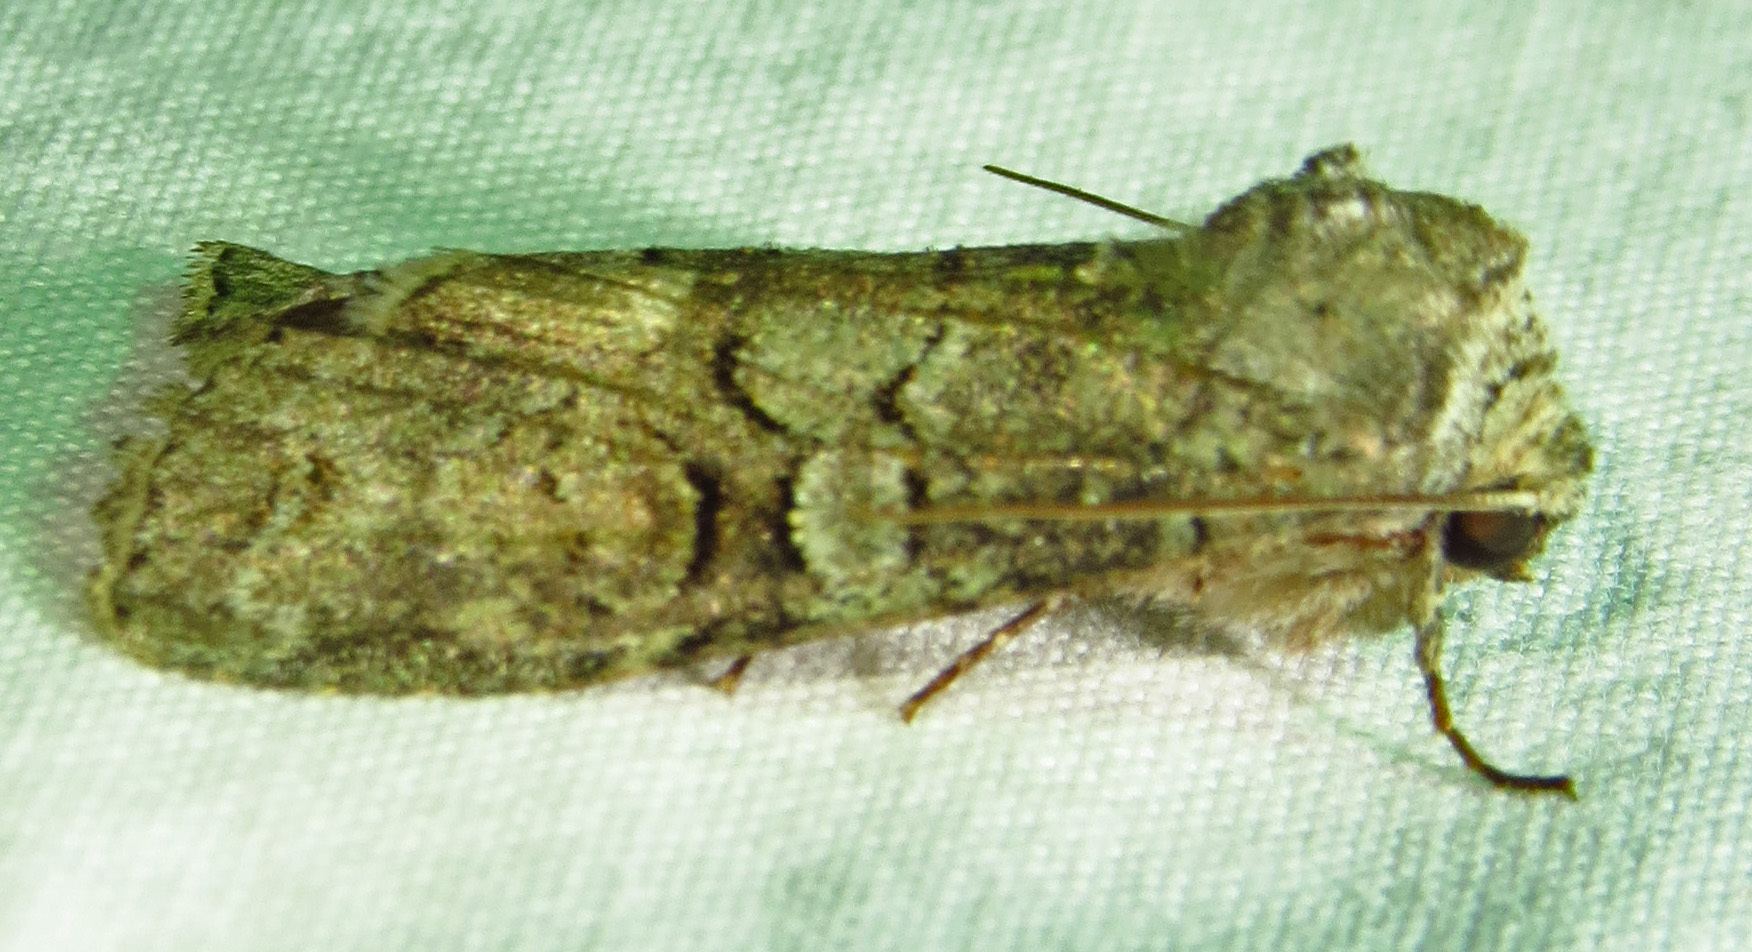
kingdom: Animalia
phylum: Arthropoda
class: Insecta
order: Lepidoptera
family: Noctuidae
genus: Egira
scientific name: Egira alternans
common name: Alternate woodling
